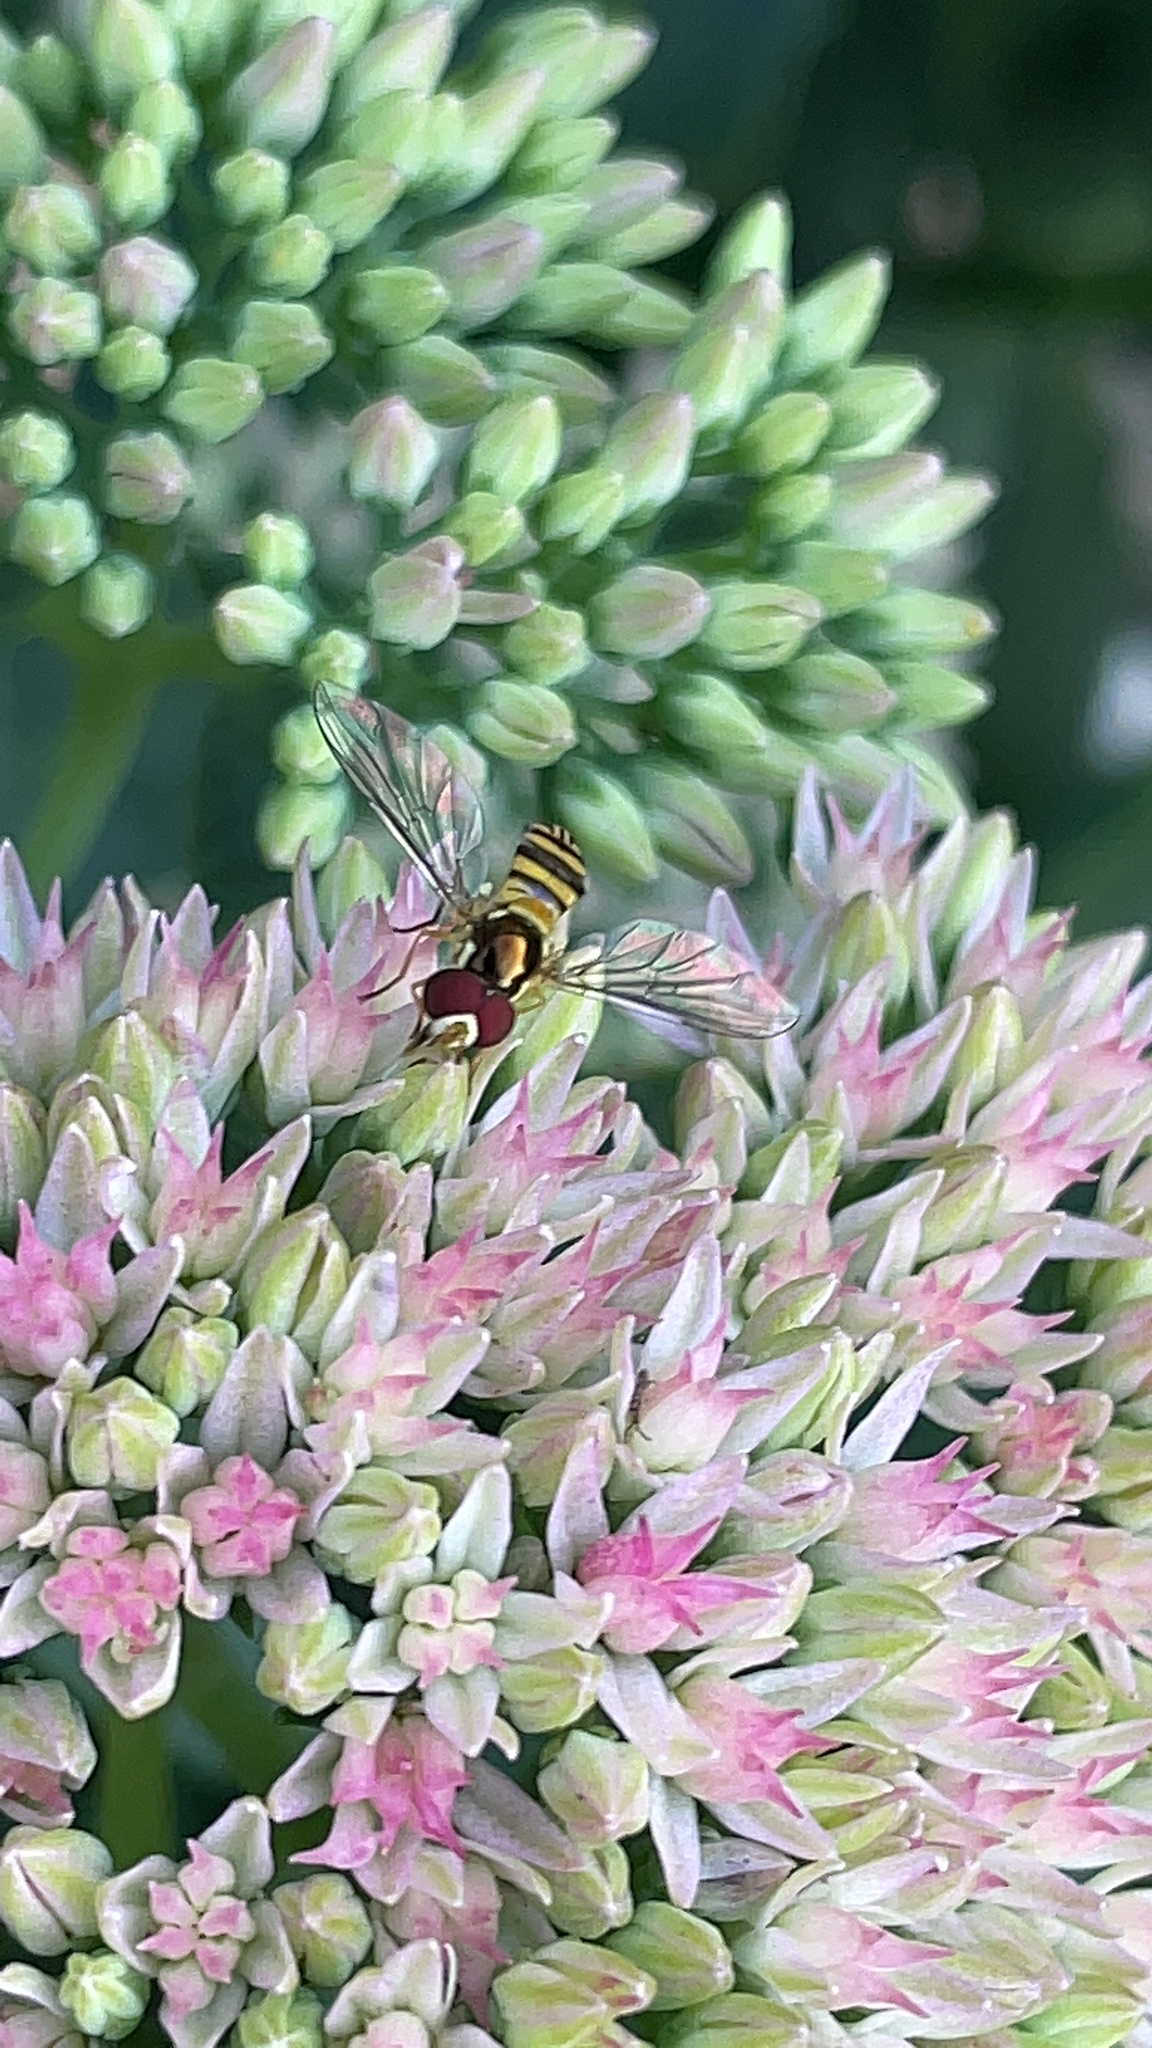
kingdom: Animalia
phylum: Arthropoda
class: Insecta
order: Diptera
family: Syrphidae
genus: Allograpta
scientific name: Allograpta obliqua
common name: Common oblique syrphid
